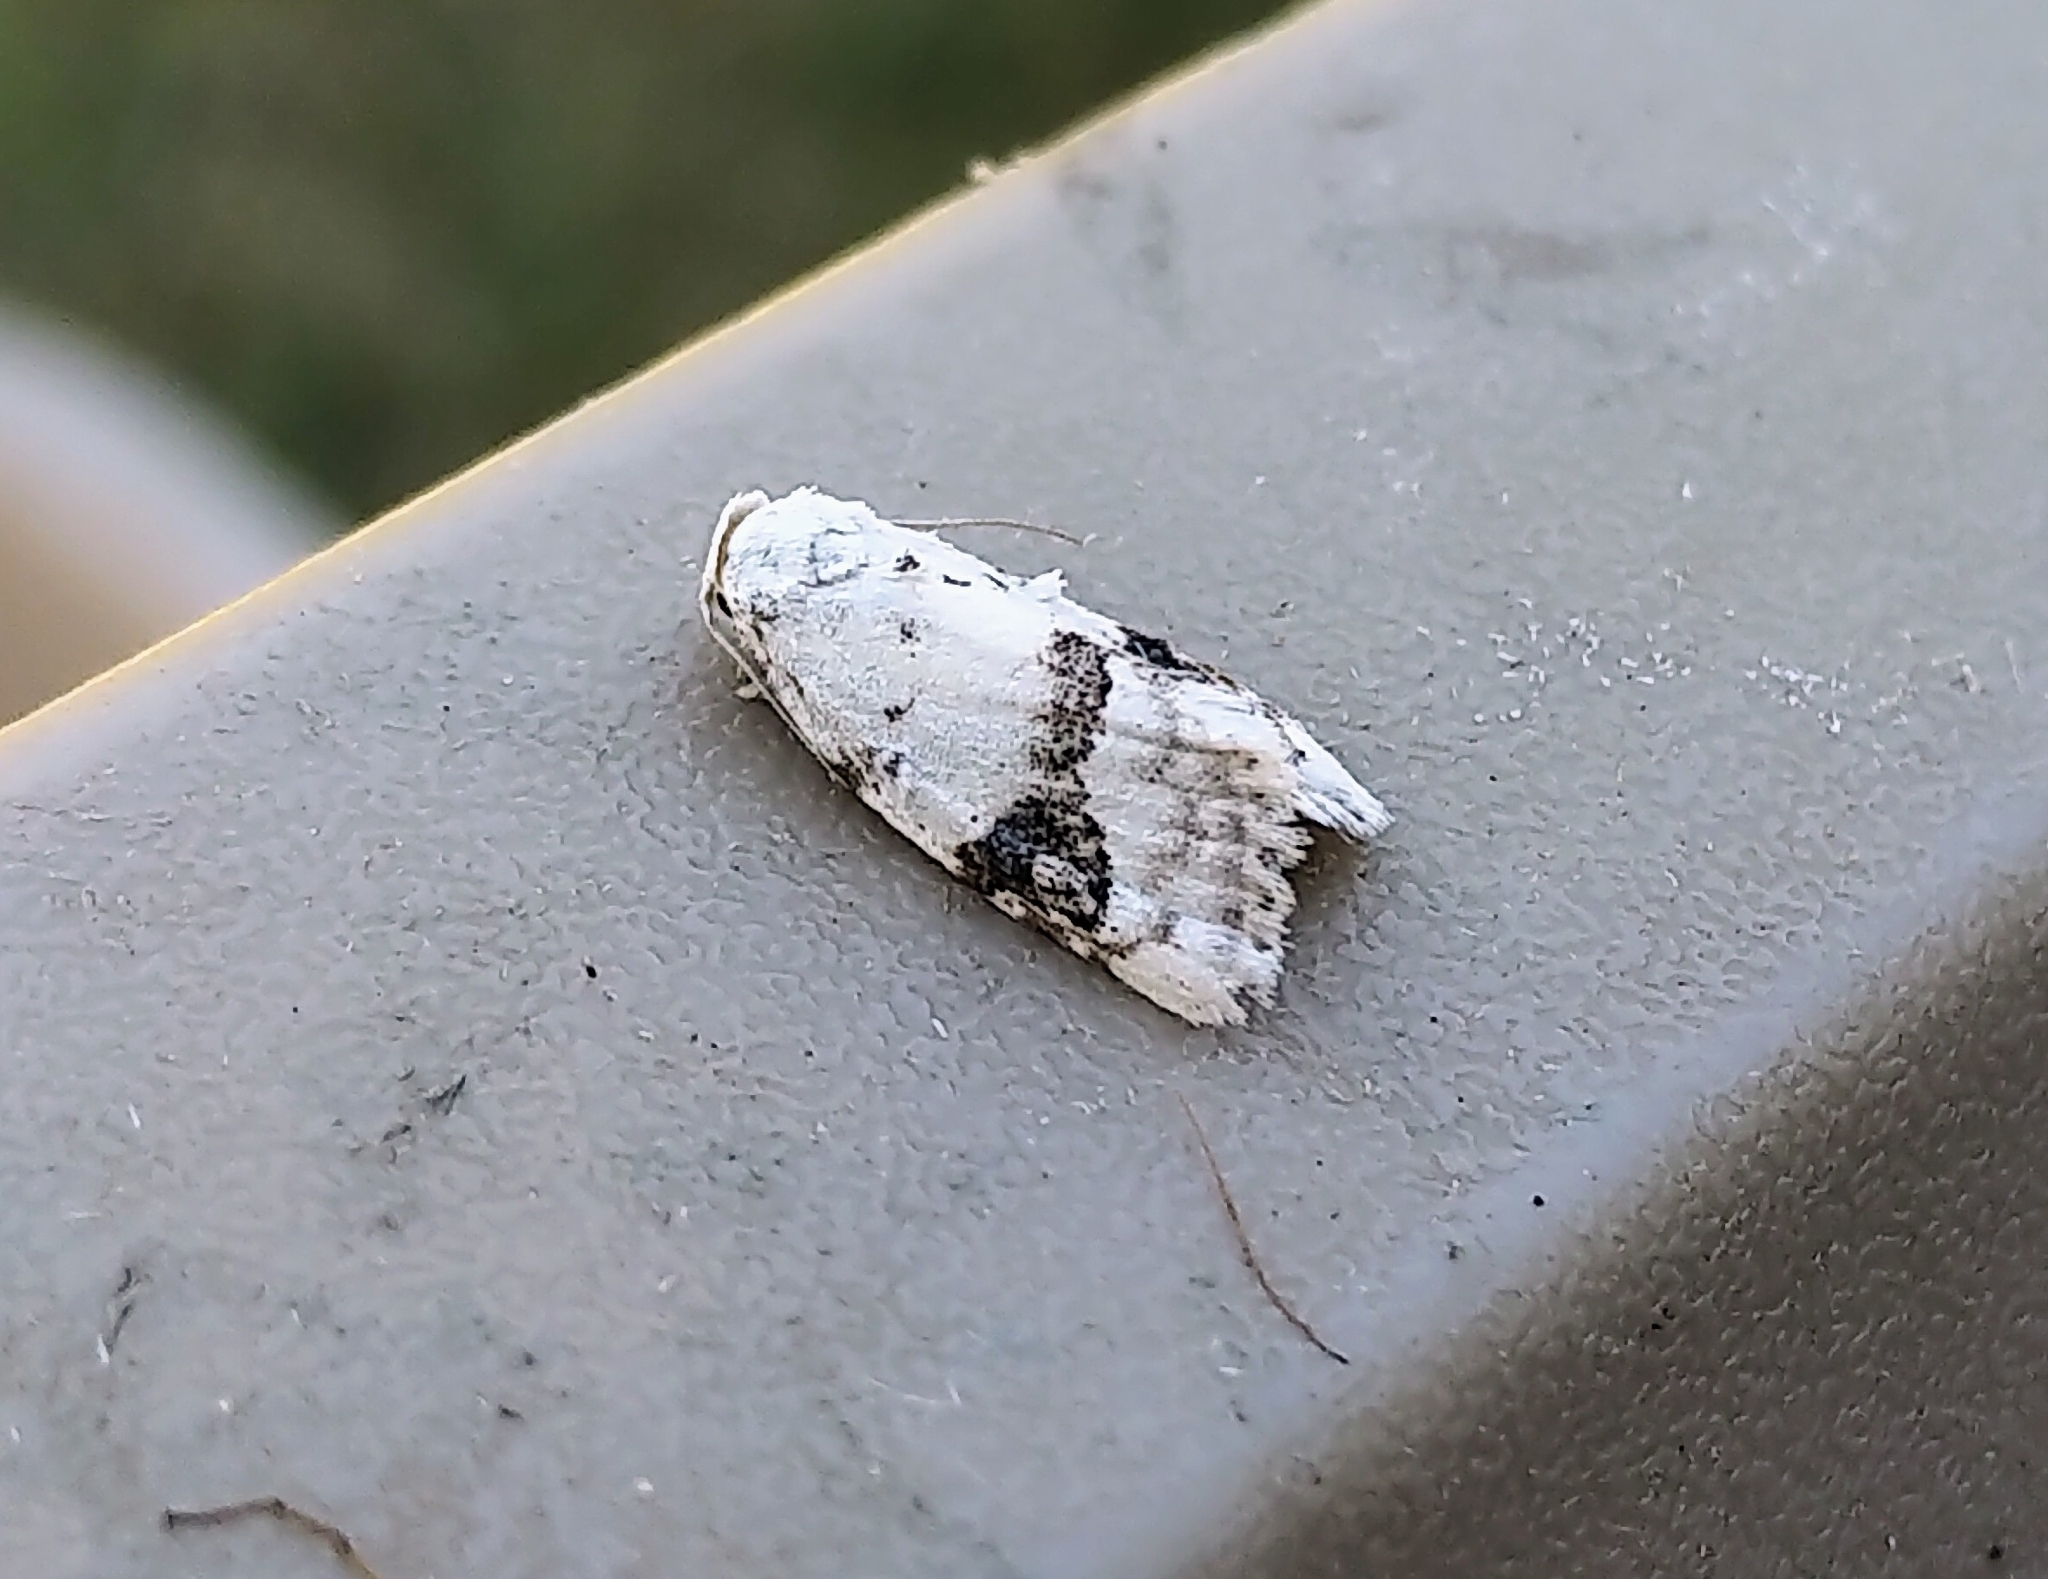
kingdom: Animalia
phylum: Arthropoda
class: Insecta
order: Lepidoptera
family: Nolidae
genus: Nola
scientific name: Nola cilicoides
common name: Blurry-patched nola moth
